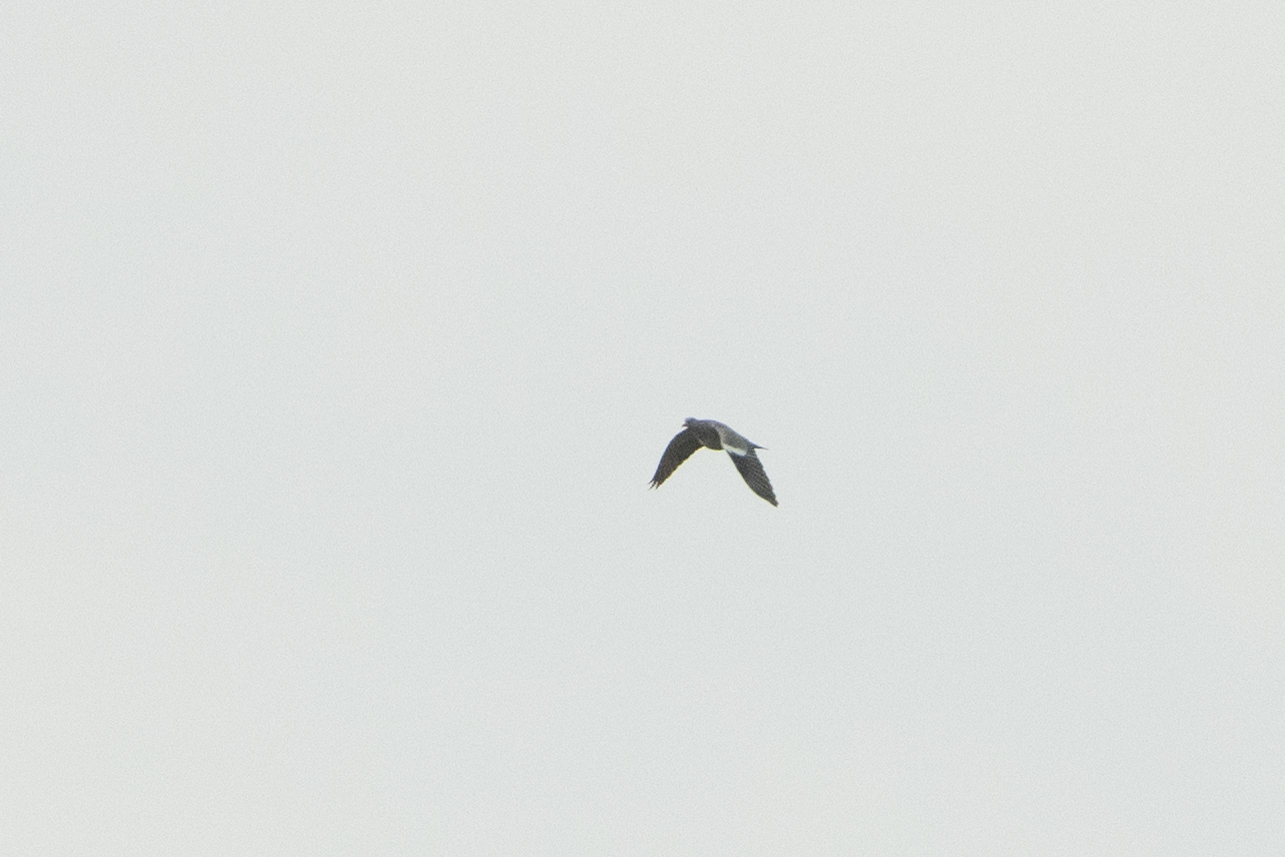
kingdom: Animalia
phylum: Chordata
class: Aves
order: Columbiformes
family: Columbidae
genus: Columba
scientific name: Columba palumbus
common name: Common wood pigeon
